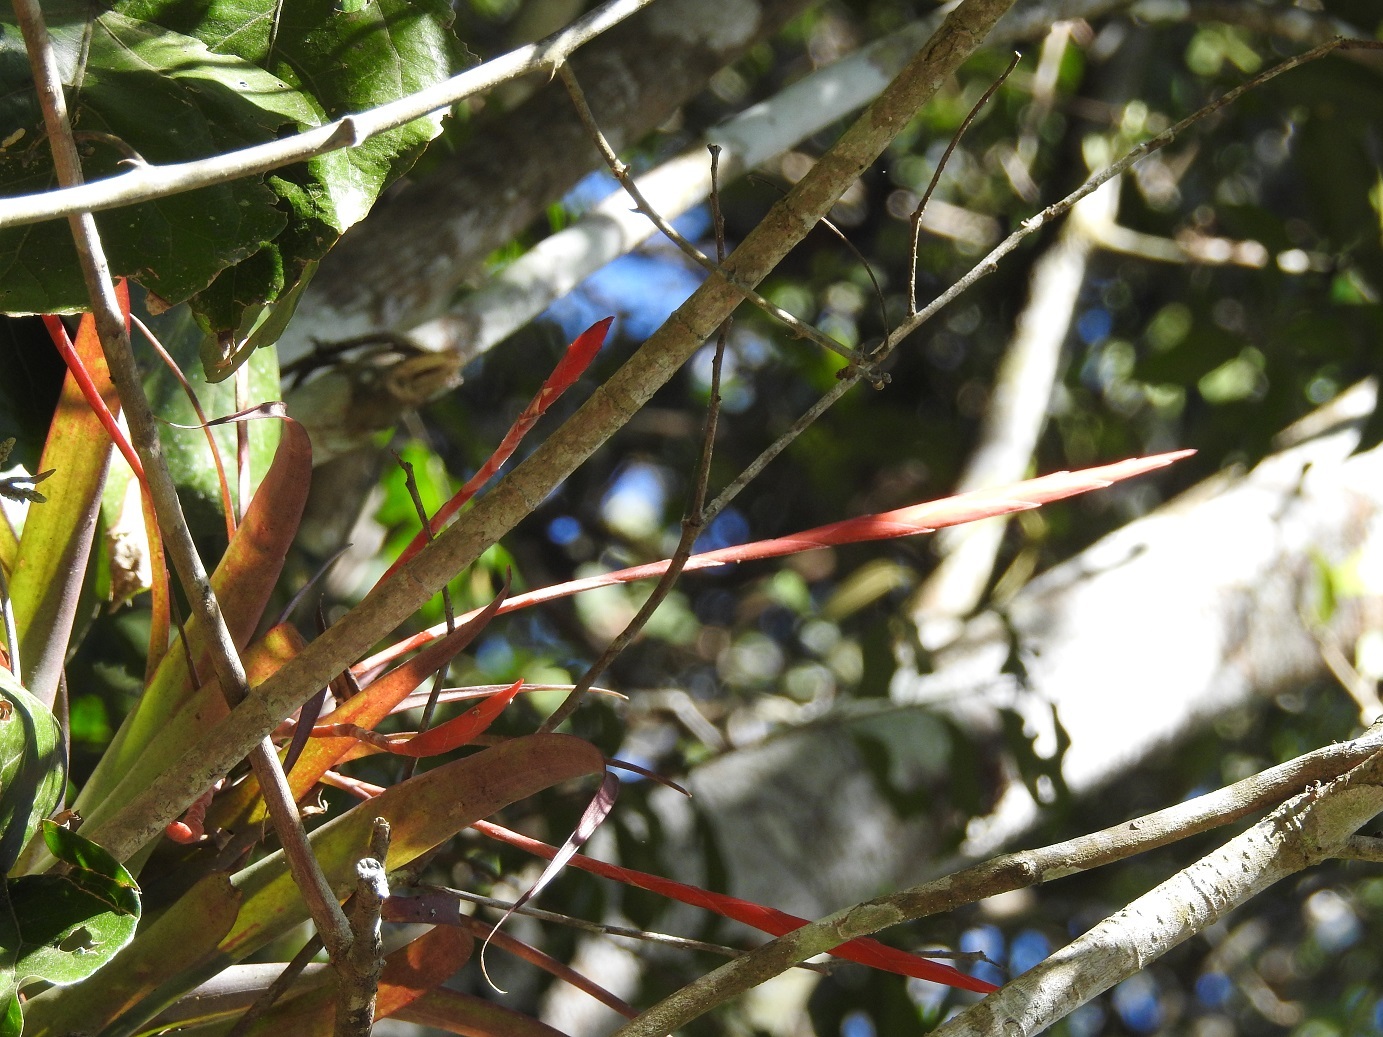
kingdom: Plantae
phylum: Tracheophyta
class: Liliopsida
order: Poales
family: Bromeliaceae
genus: Tillandsia
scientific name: Tillandsia flabellata
